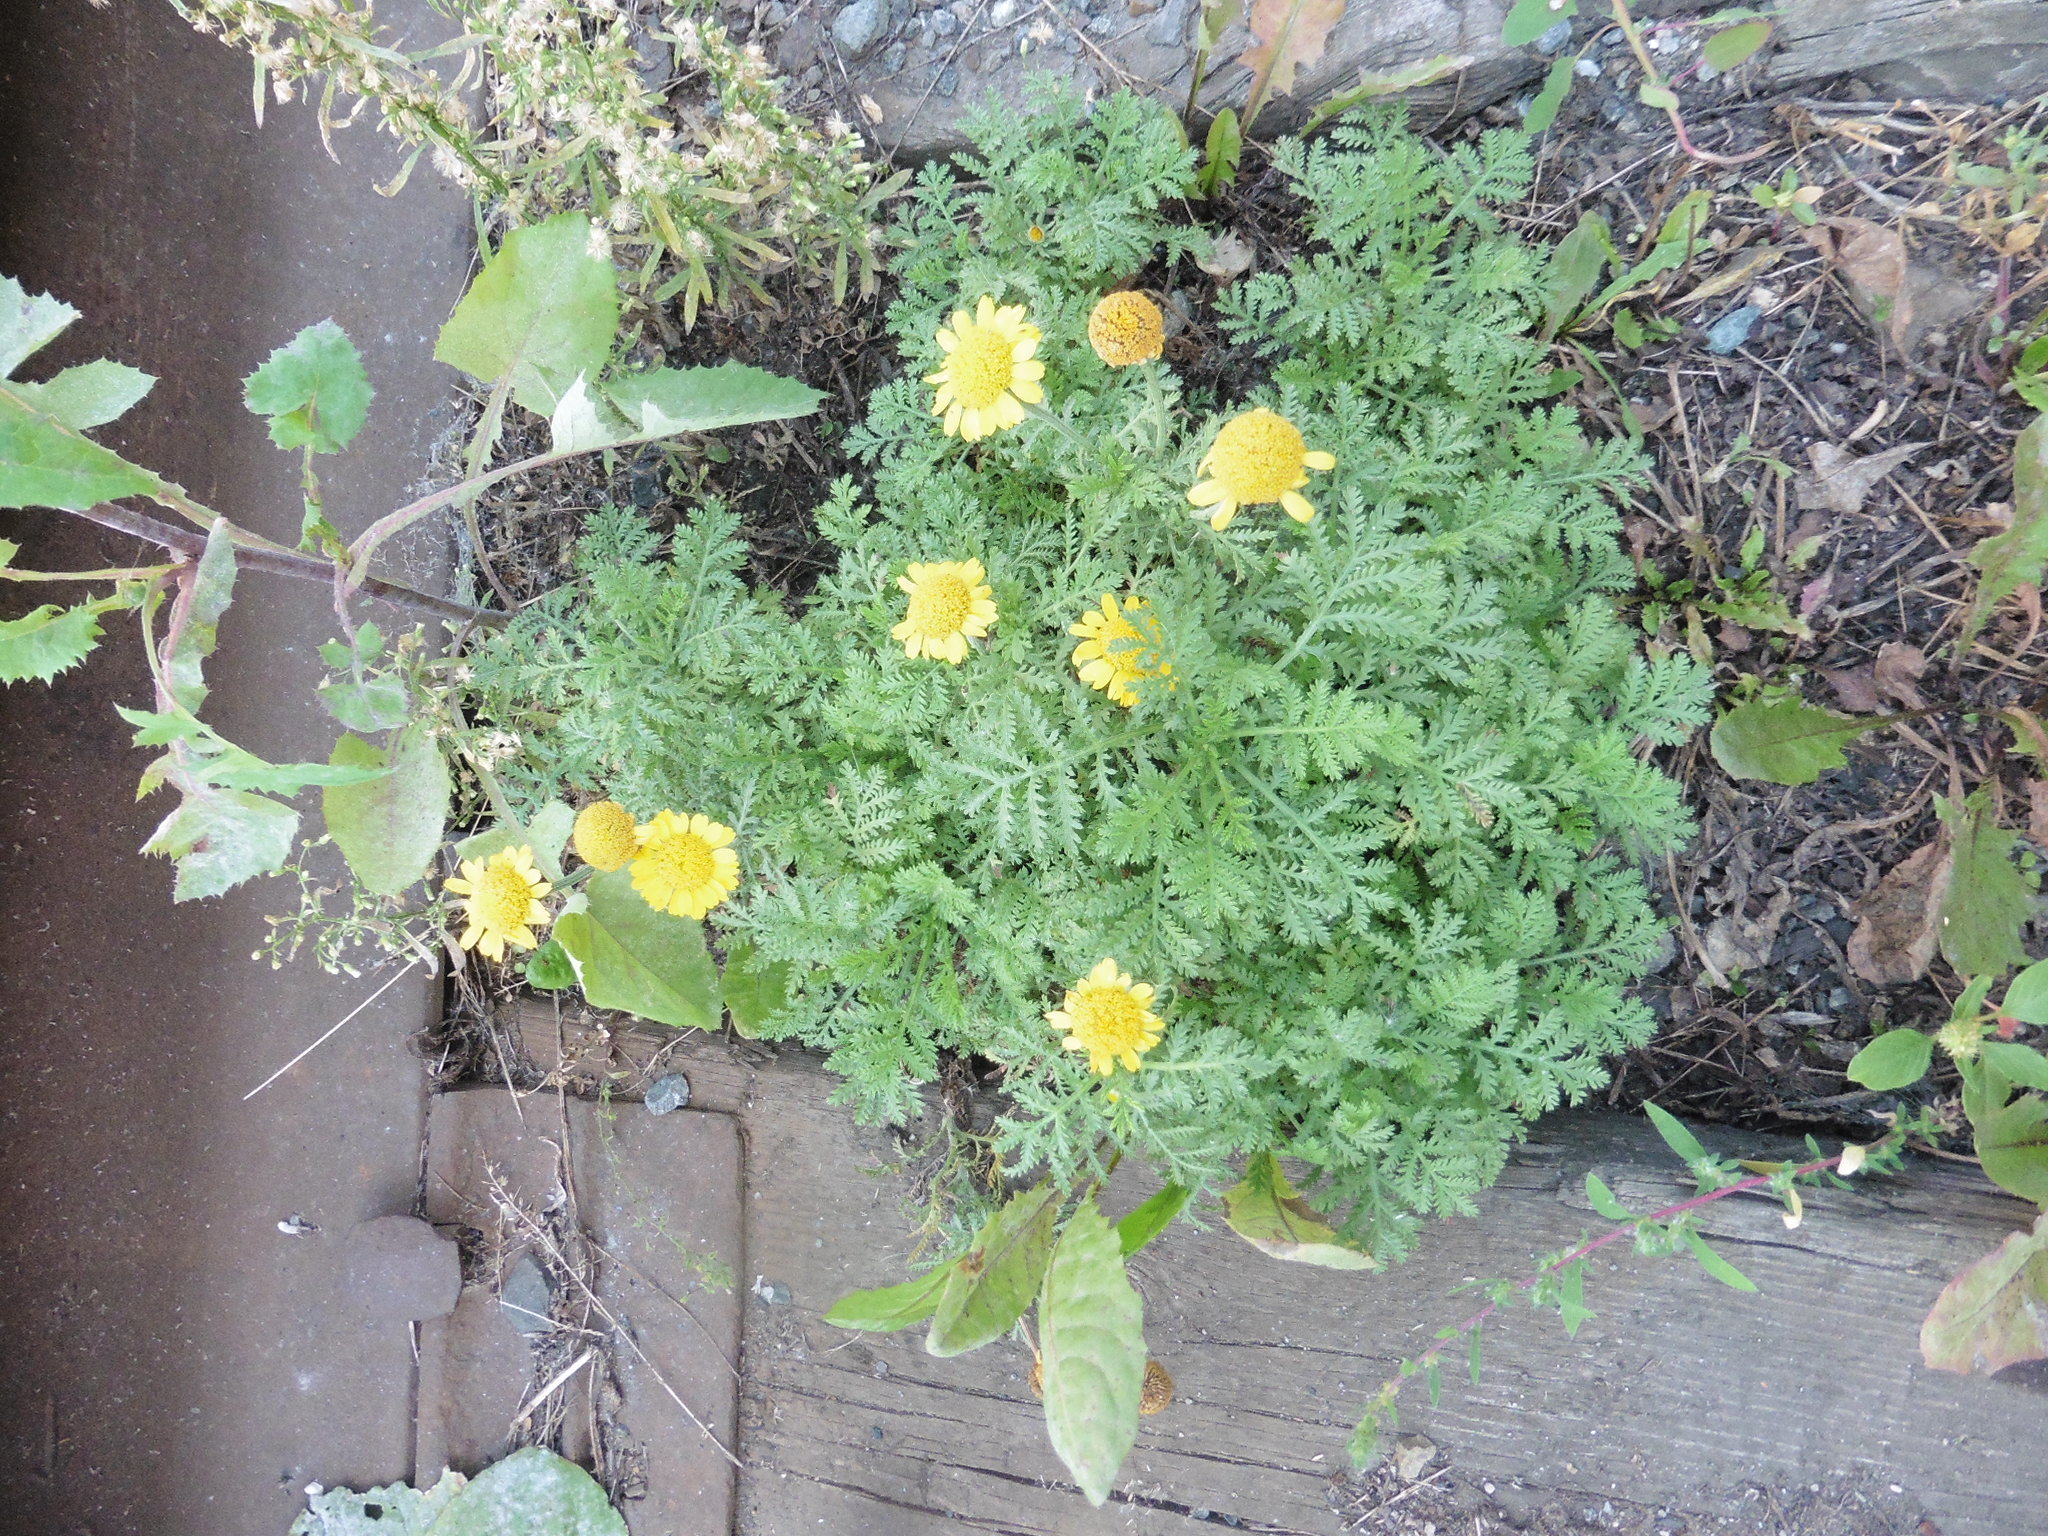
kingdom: Plantae
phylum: Tracheophyta
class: Magnoliopsida
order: Asterales
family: Asteraceae
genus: Cota
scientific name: Cota tinctoria
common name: Golden chamomile
